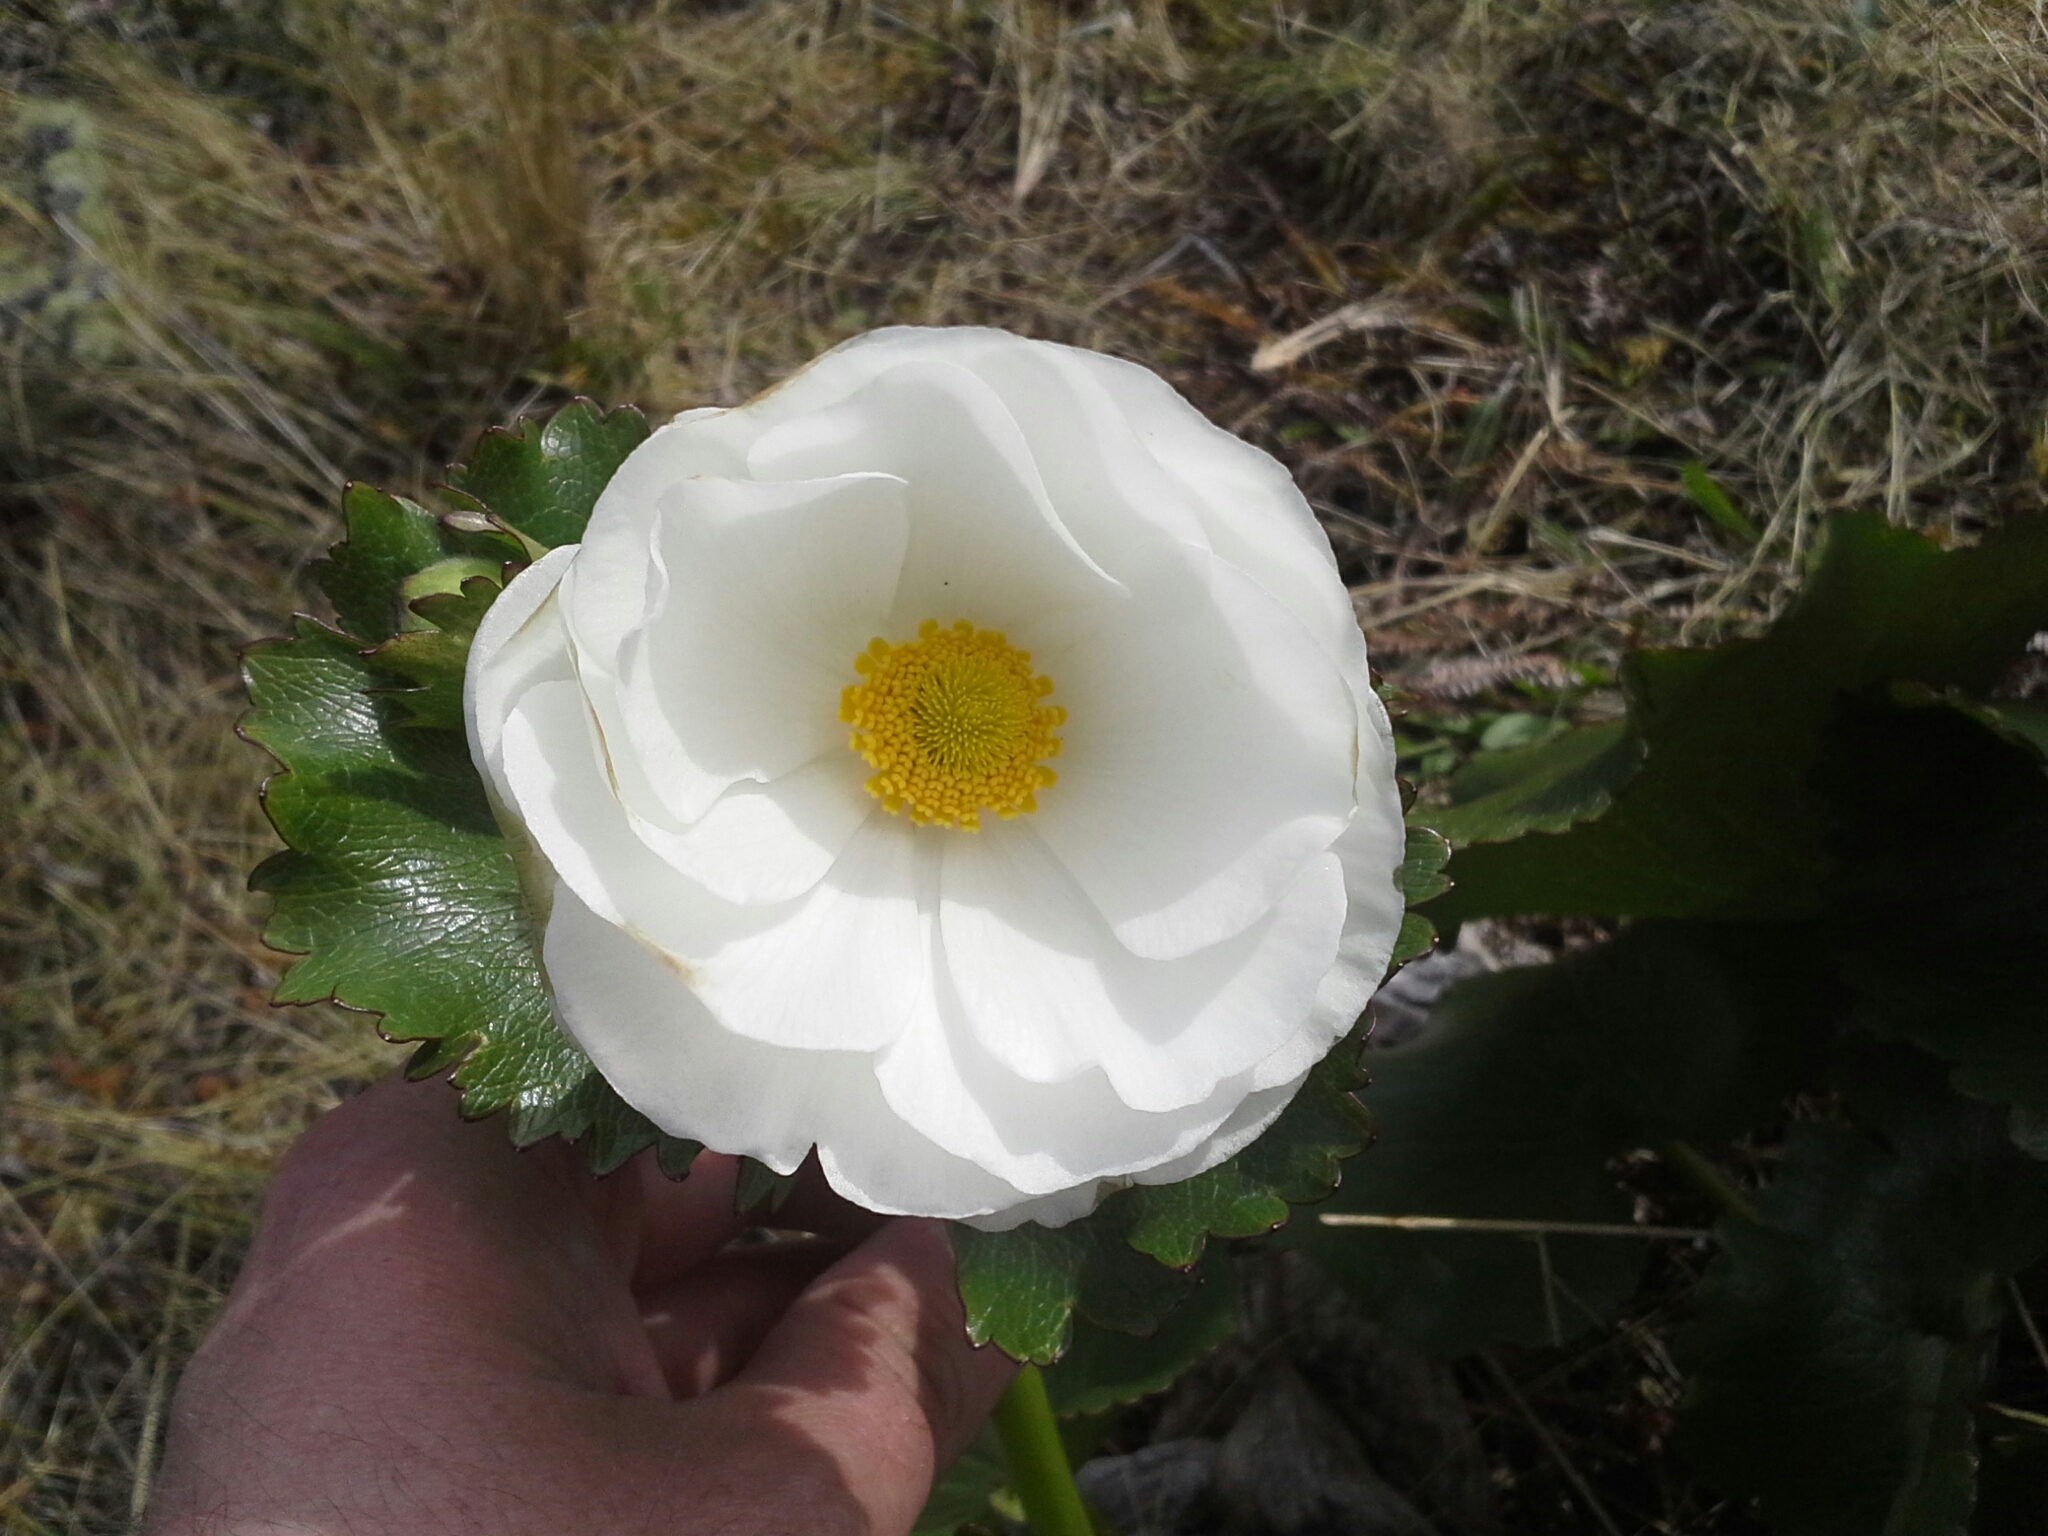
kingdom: Plantae
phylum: Tracheophyta
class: Magnoliopsida
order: Ranunculales
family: Ranunculaceae
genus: Ranunculus
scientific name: Ranunculus lyallii
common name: Mountain-lily
